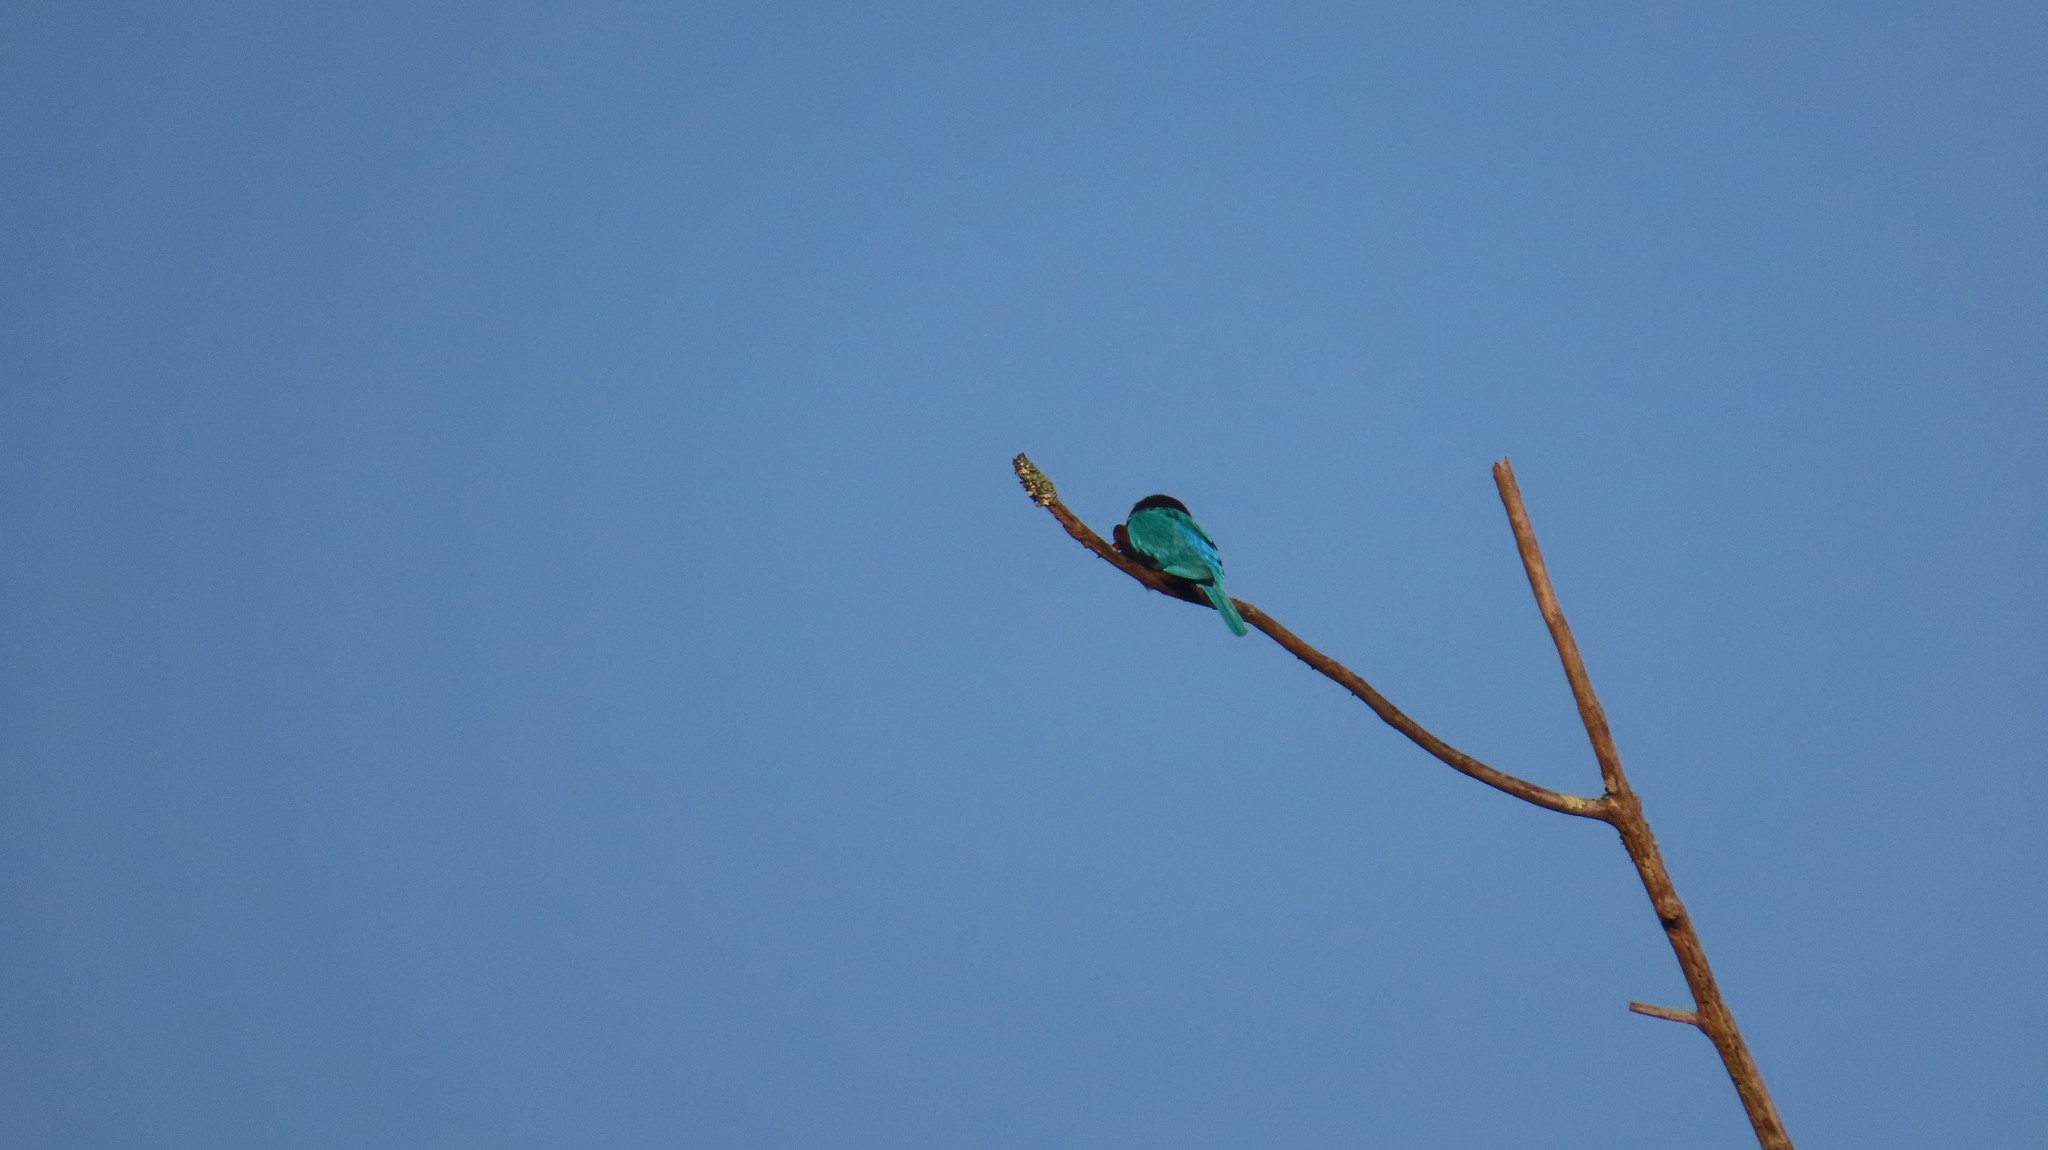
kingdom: Animalia
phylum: Chordata
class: Aves
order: Coraciiformes
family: Alcedinidae
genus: Halcyon
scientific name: Halcyon smyrnensis
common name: White-throated kingfisher
